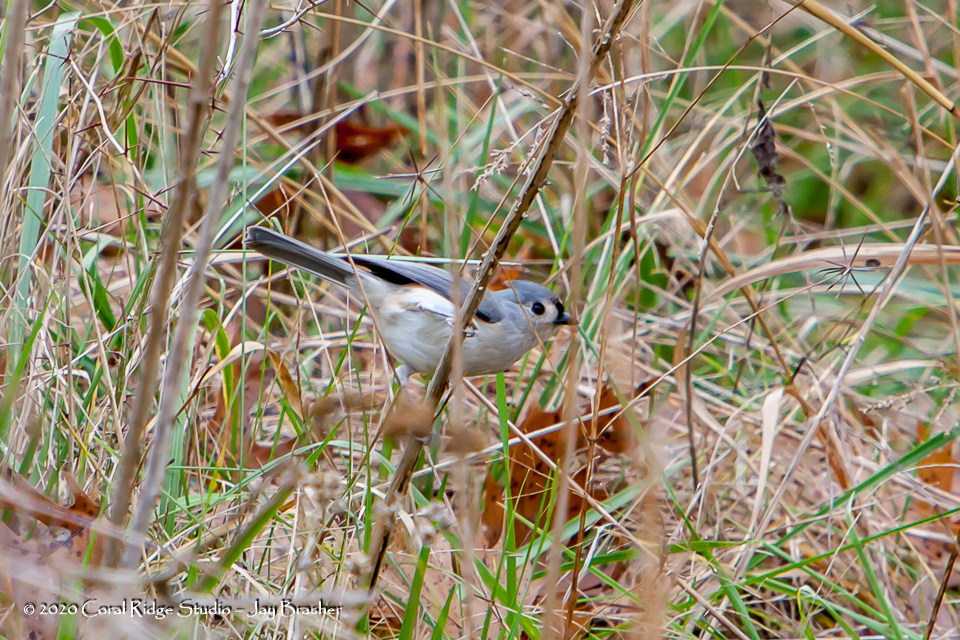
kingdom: Animalia
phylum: Chordata
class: Aves
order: Passeriformes
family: Paridae
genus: Baeolophus
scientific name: Baeolophus bicolor
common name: Tufted titmouse
